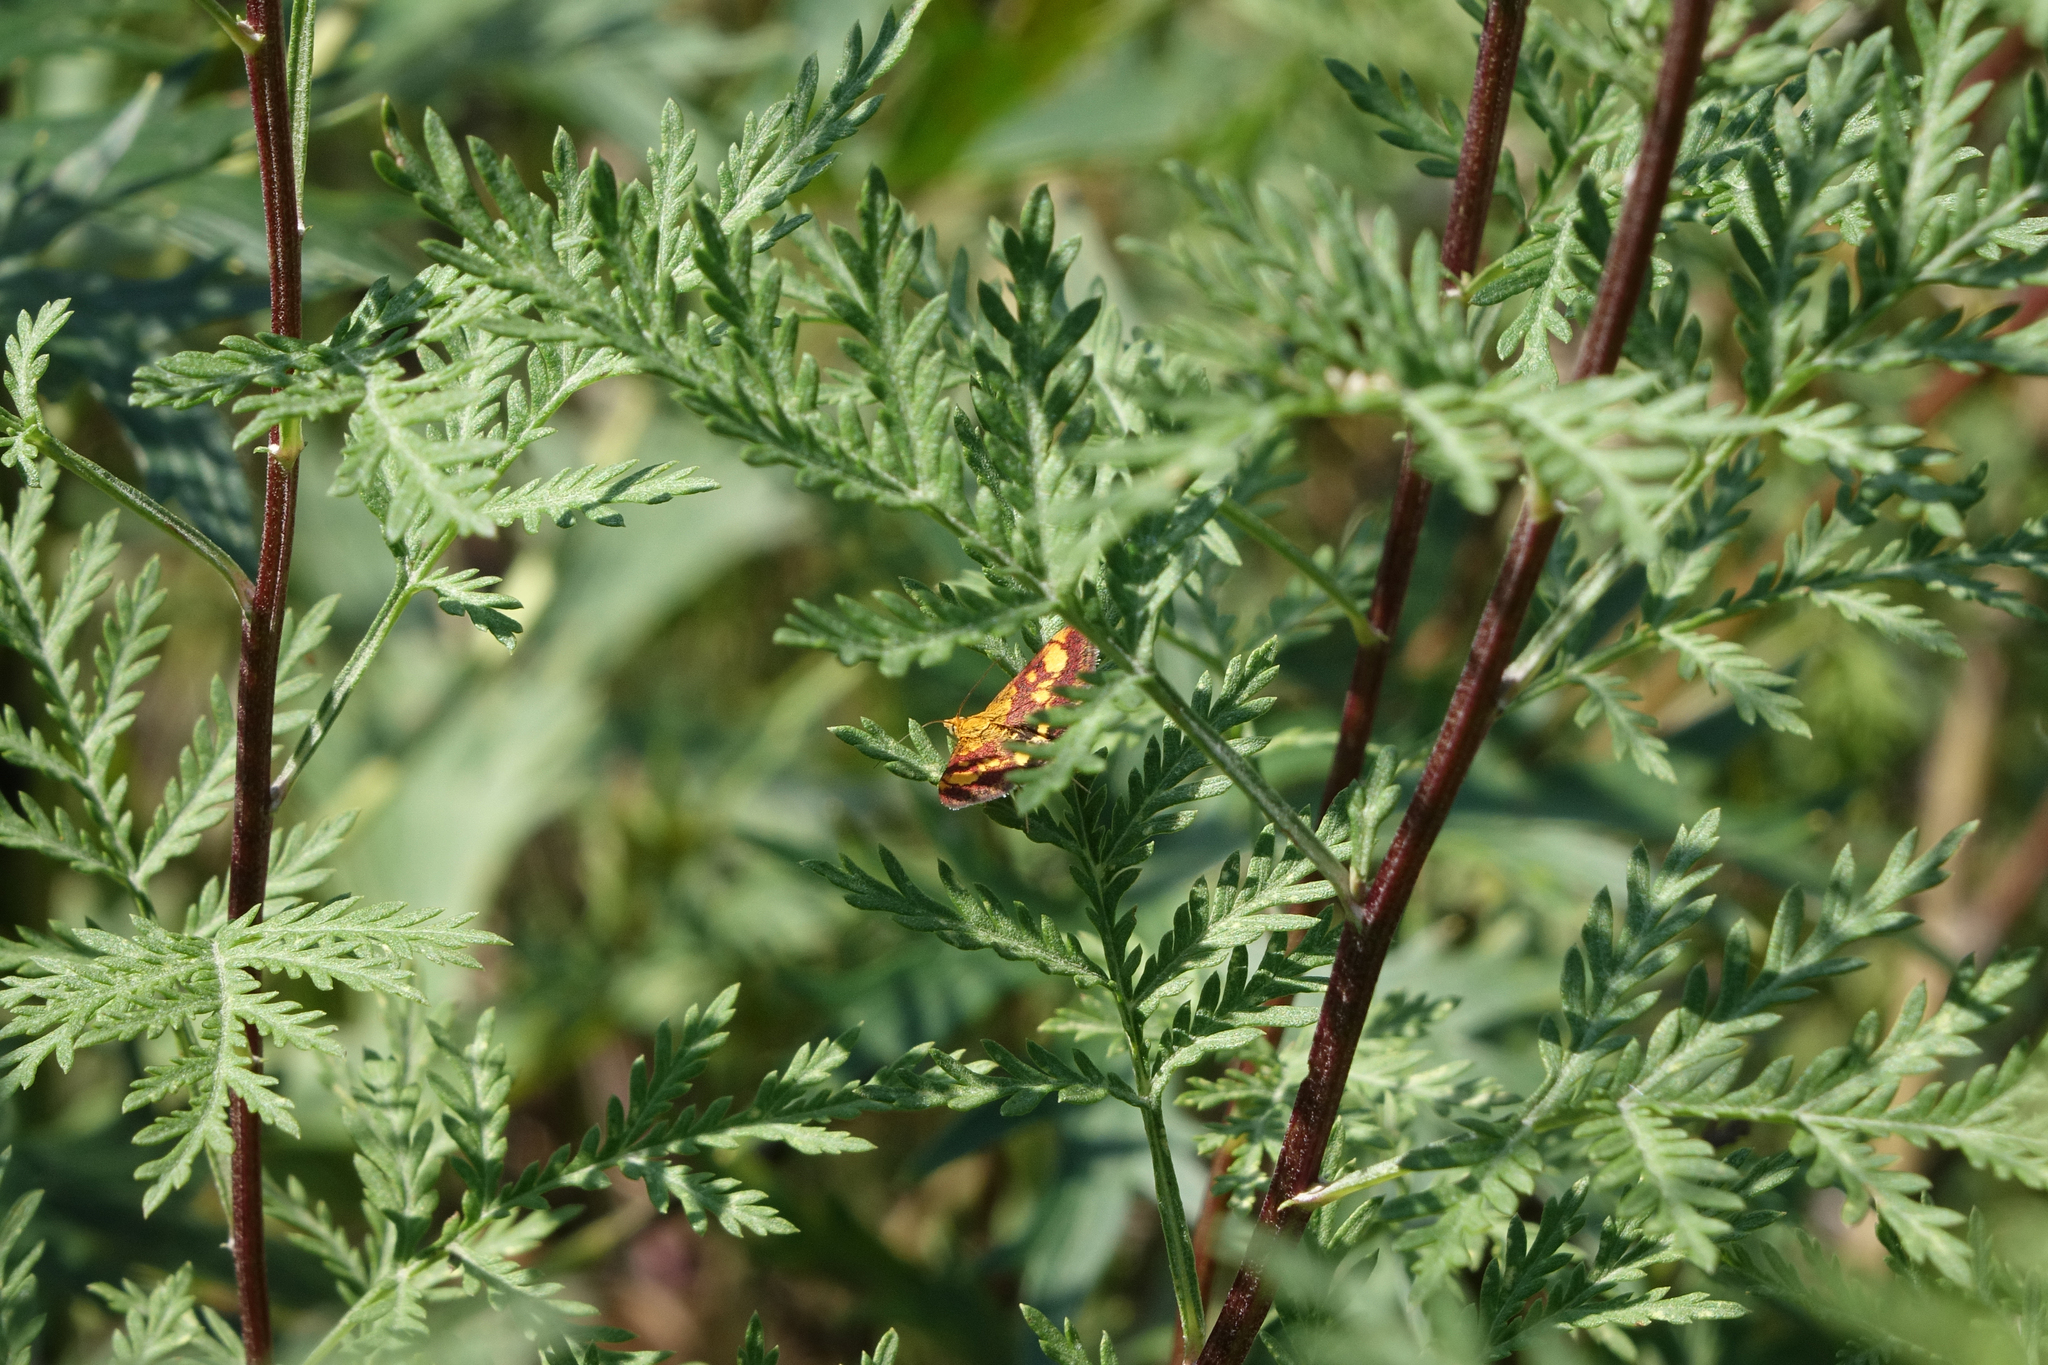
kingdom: Plantae
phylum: Tracheophyta
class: Magnoliopsida
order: Asterales
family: Asteraceae
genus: Artemisia
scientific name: Artemisia gmelinii
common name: Gmelin's wormwood
